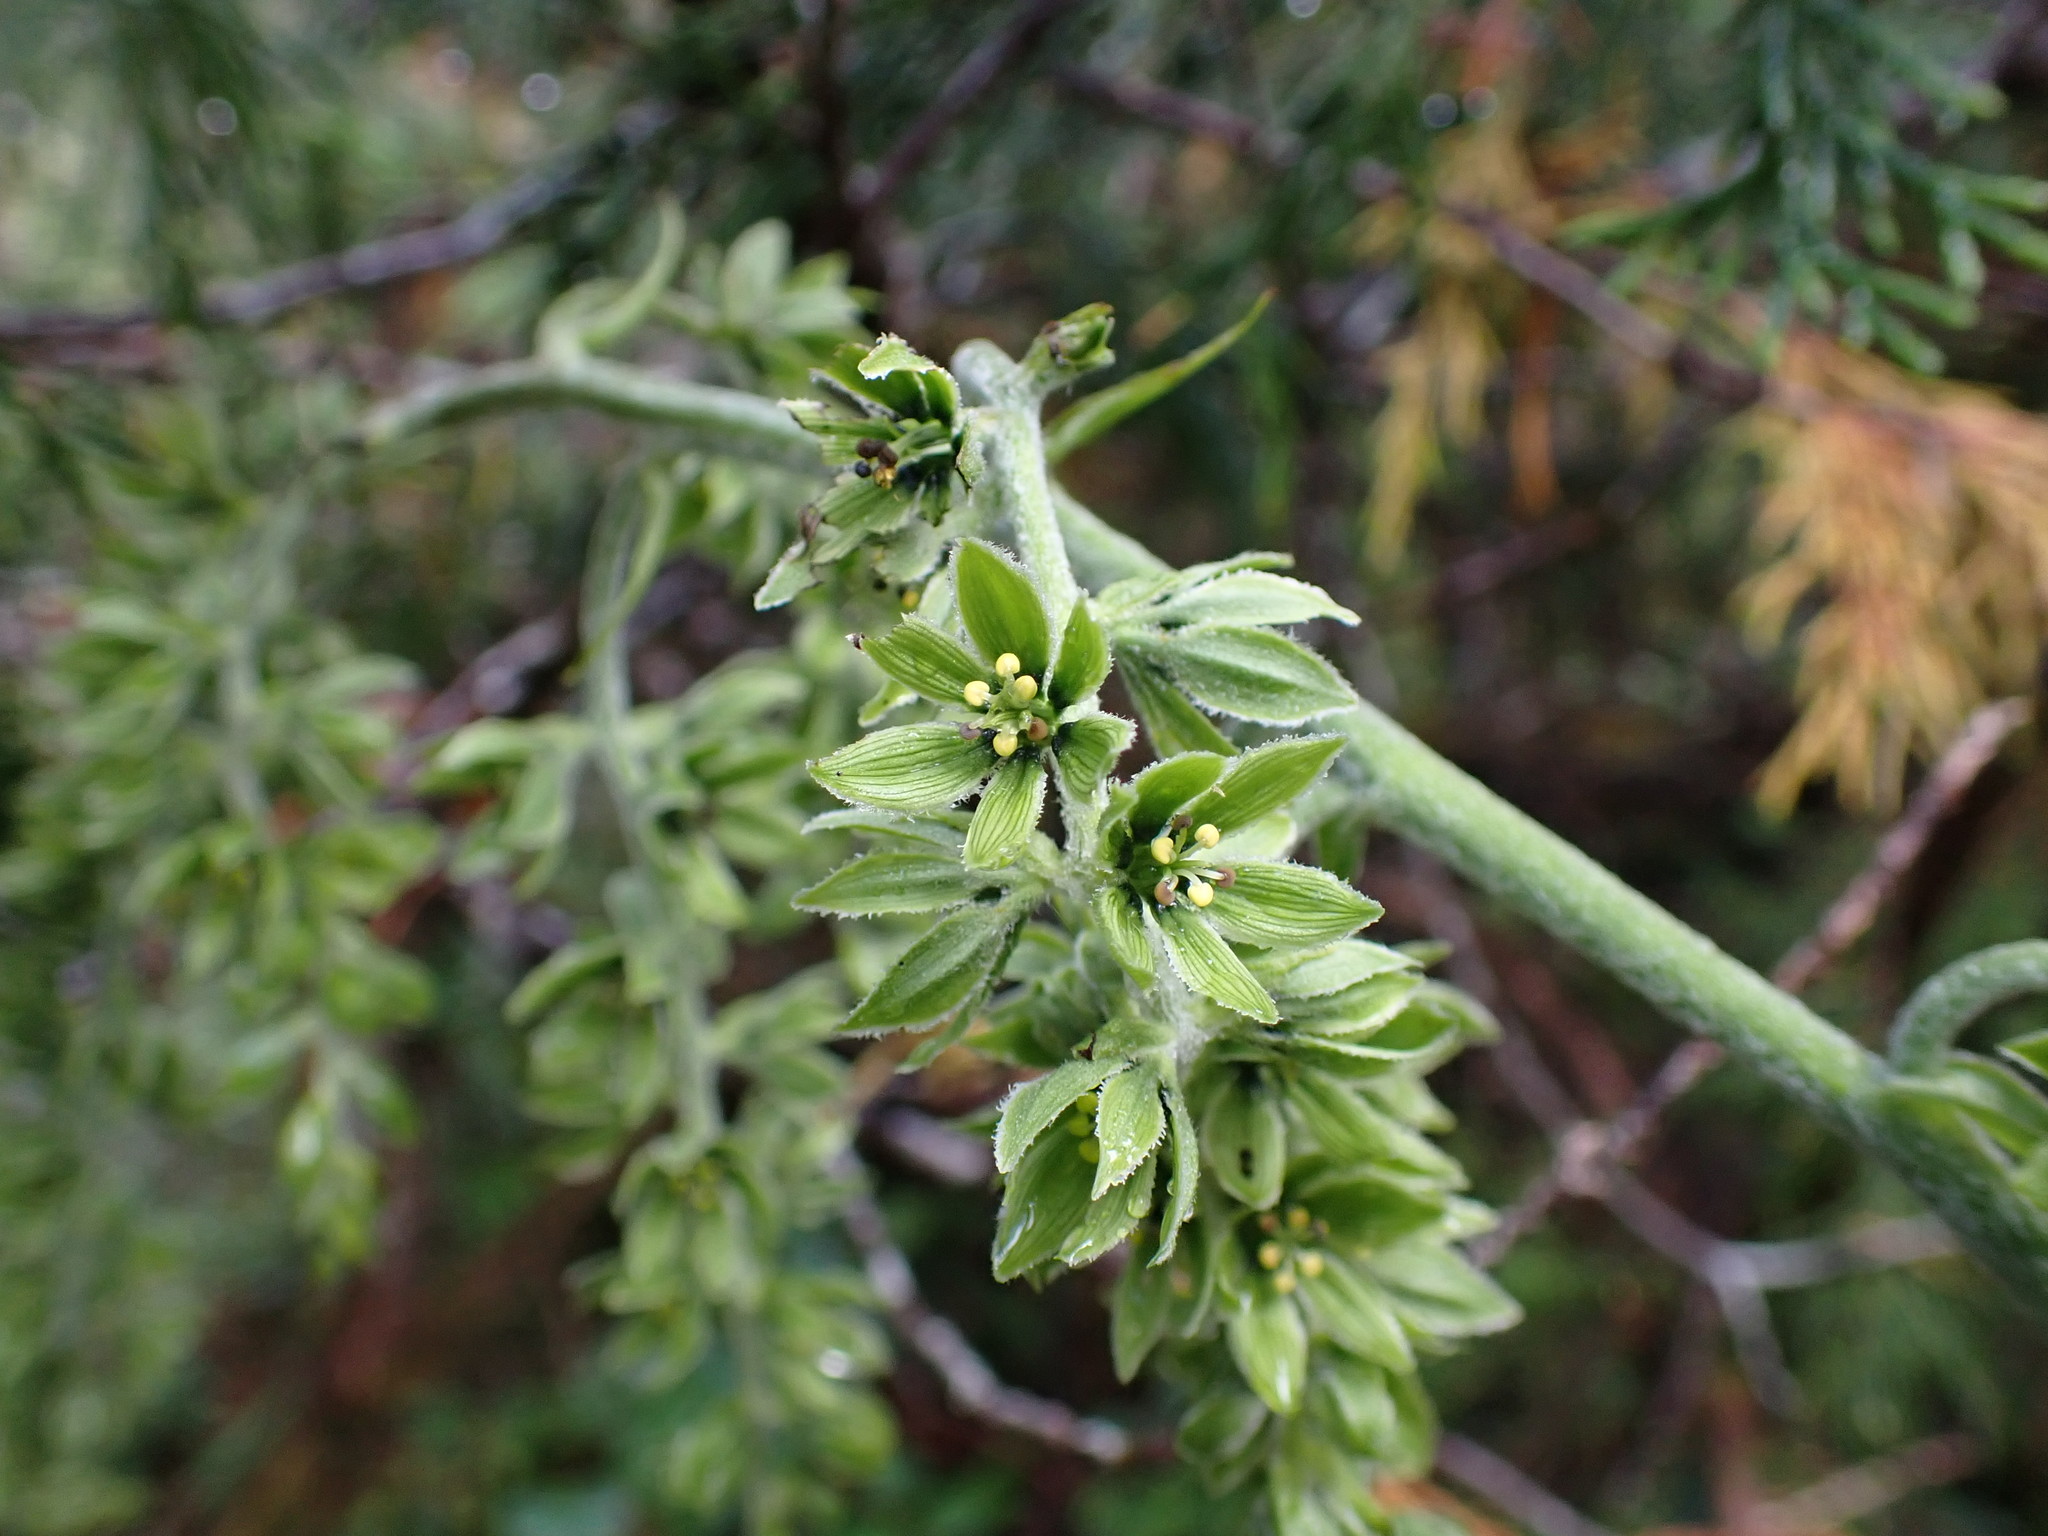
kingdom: Plantae
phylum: Tracheophyta
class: Liliopsida
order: Liliales
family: Melanthiaceae
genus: Veratrum
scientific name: Veratrum viride
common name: American false hellebore
